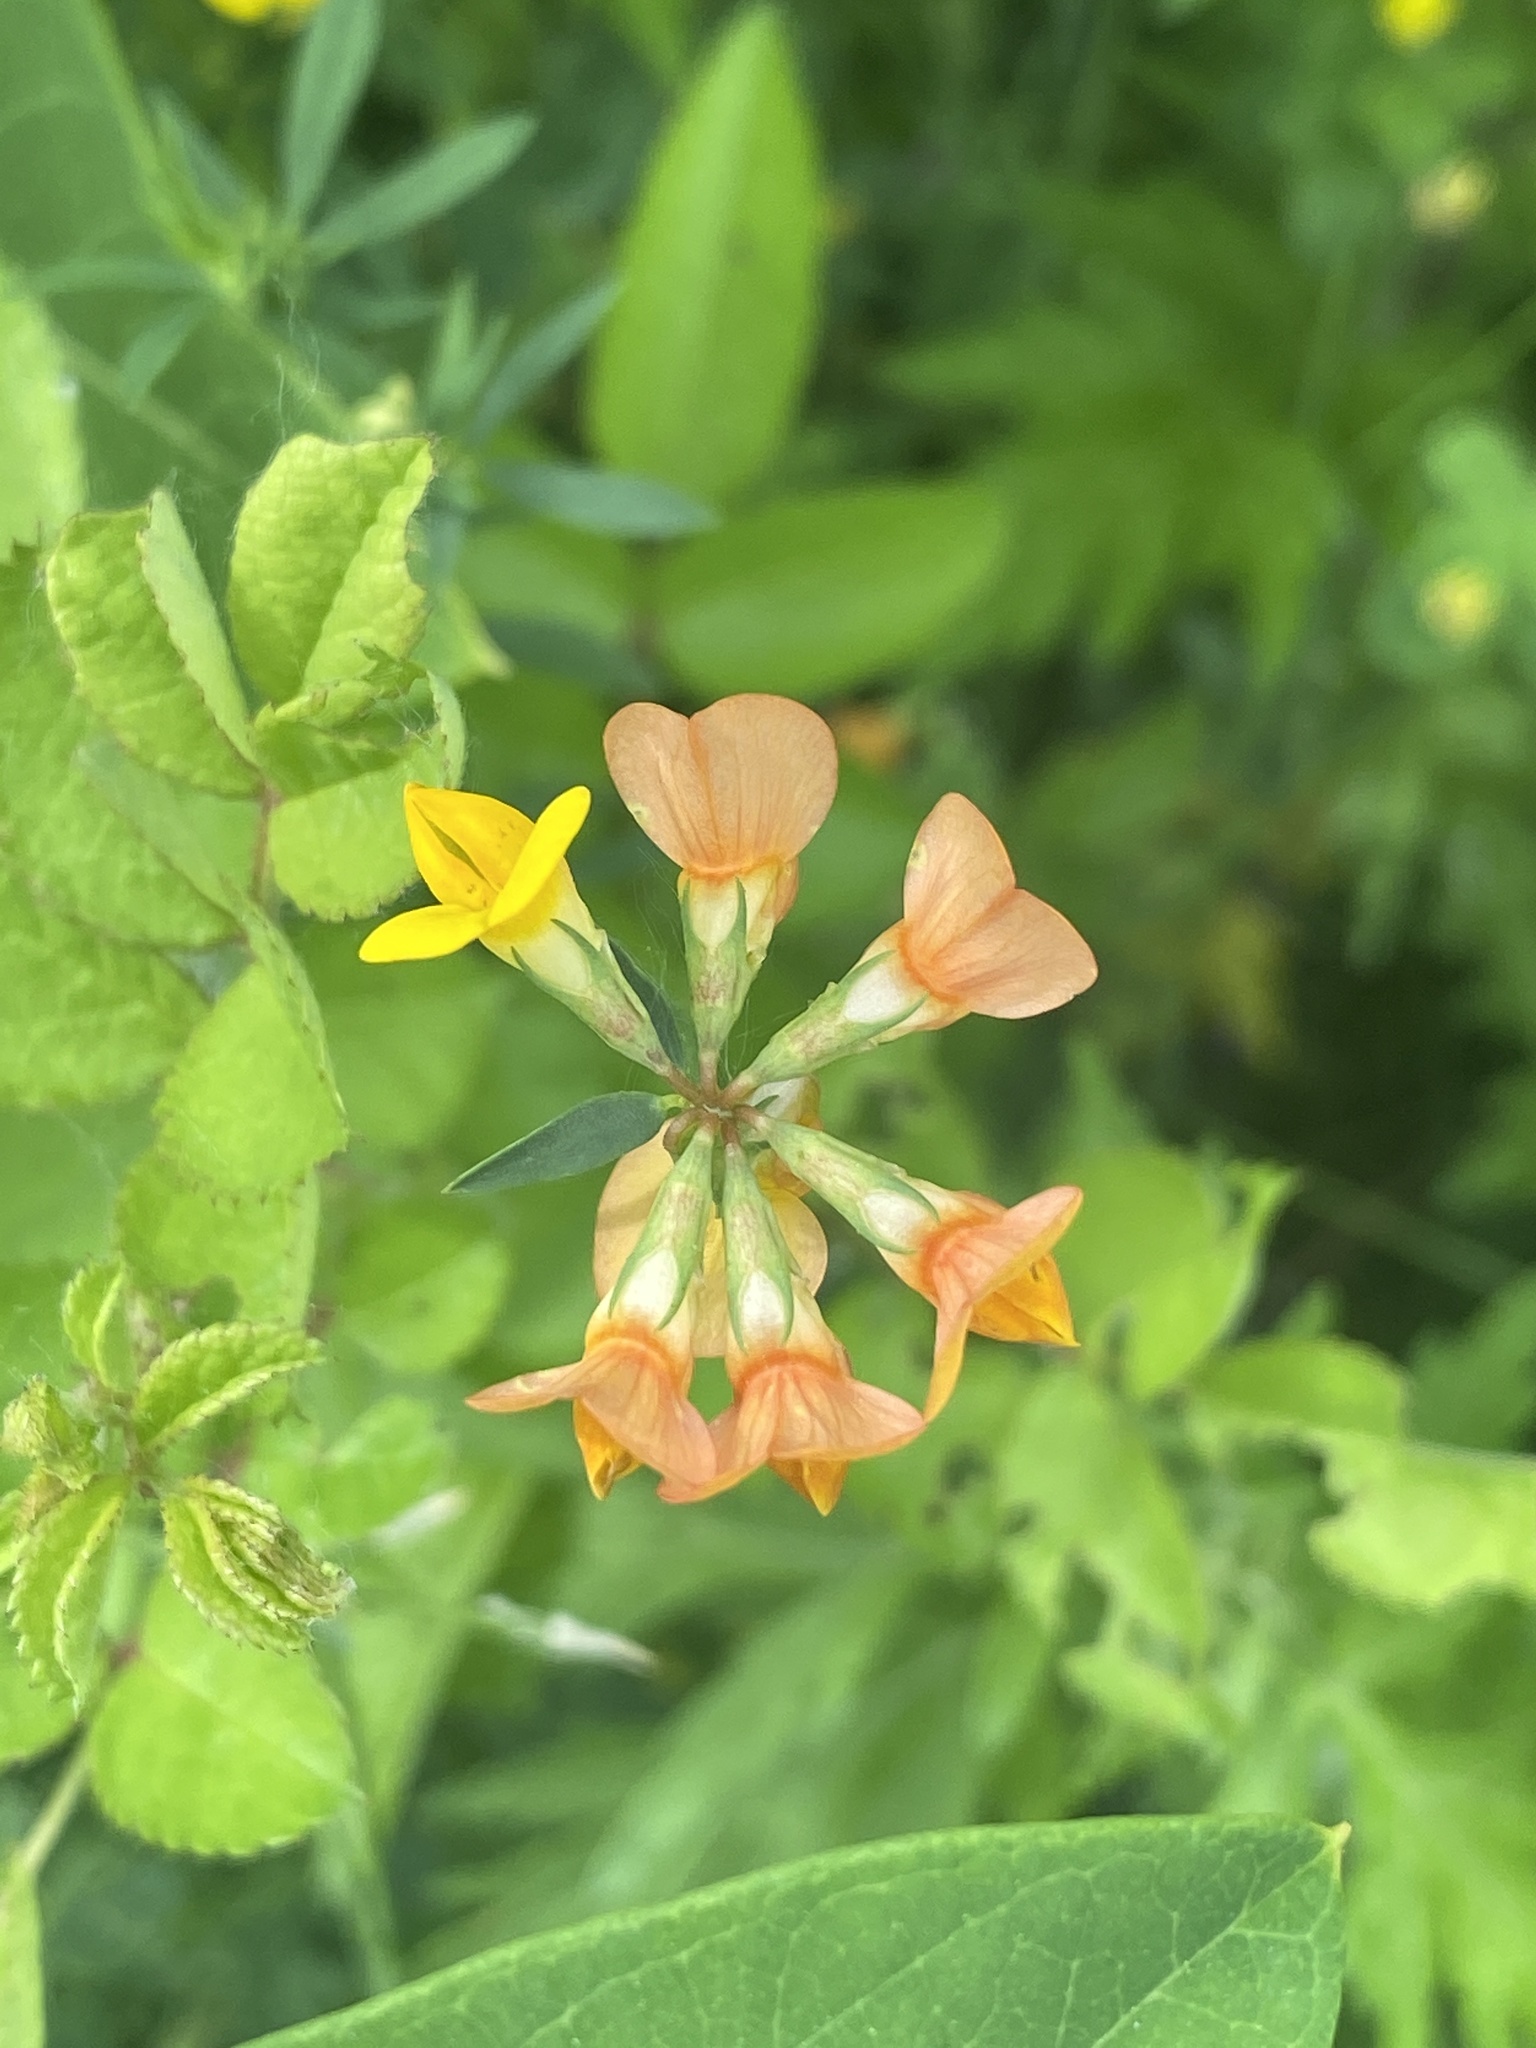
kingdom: Plantae
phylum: Tracheophyta
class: Magnoliopsida
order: Fabales
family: Fabaceae
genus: Lotus
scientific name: Lotus corniculatus
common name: Common bird's-foot-trefoil
